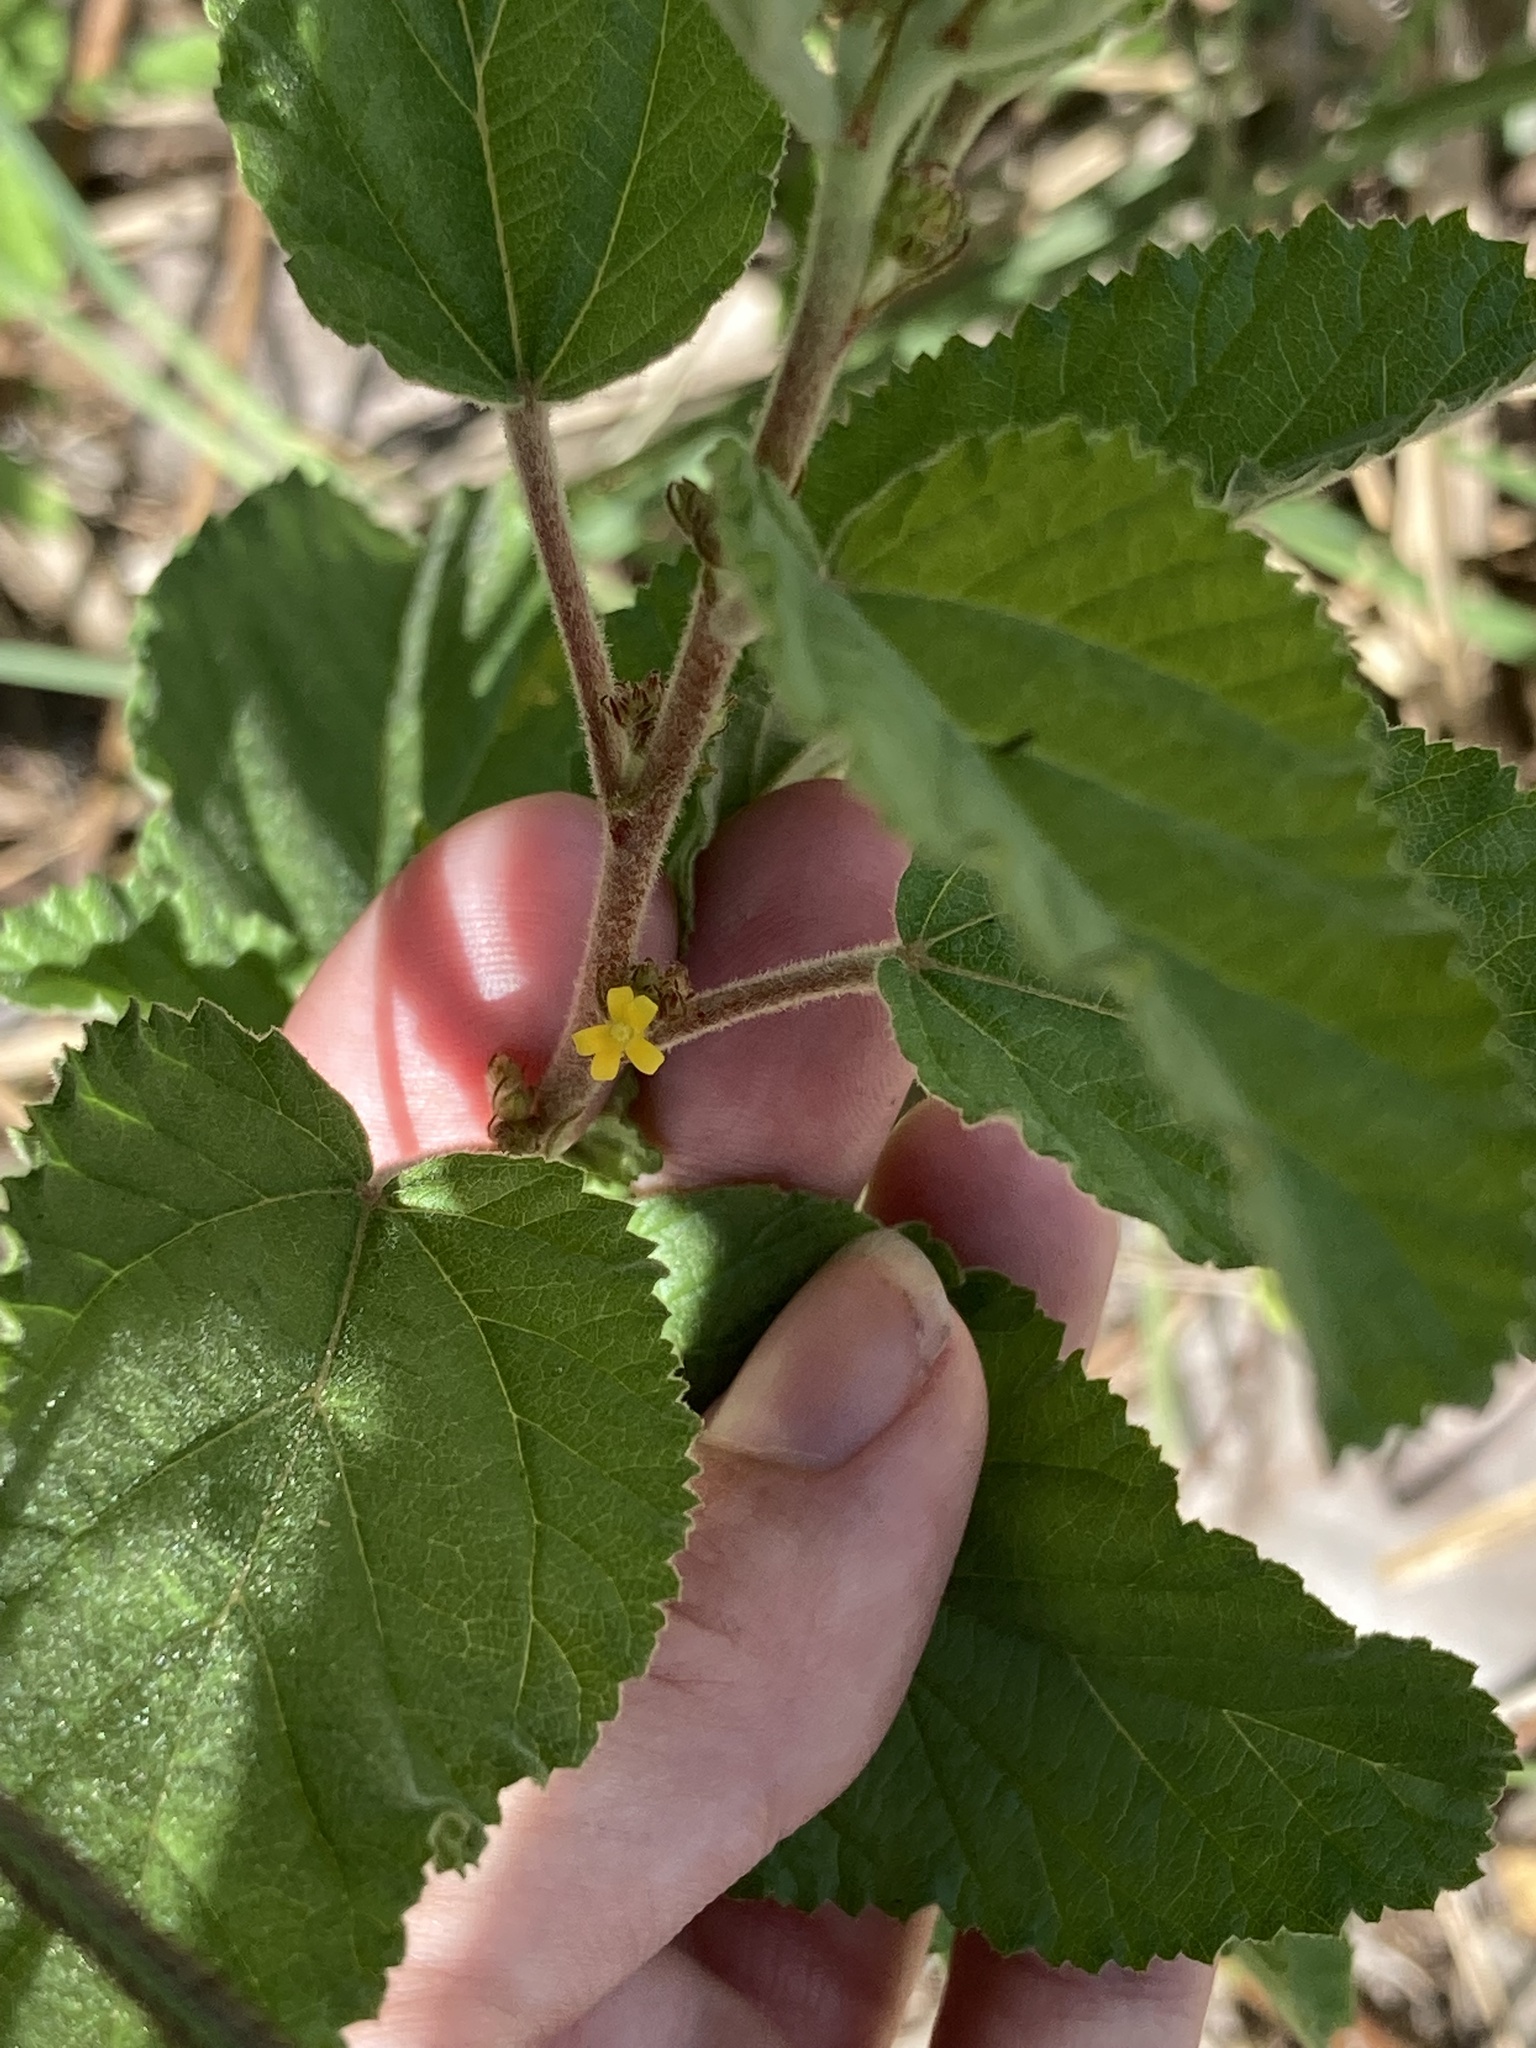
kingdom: Plantae
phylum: Tracheophyta
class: Magnoliopsida
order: Malvales
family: Malvaceae
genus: Waltheria
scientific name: Waltheria indica
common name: Leather-coat
